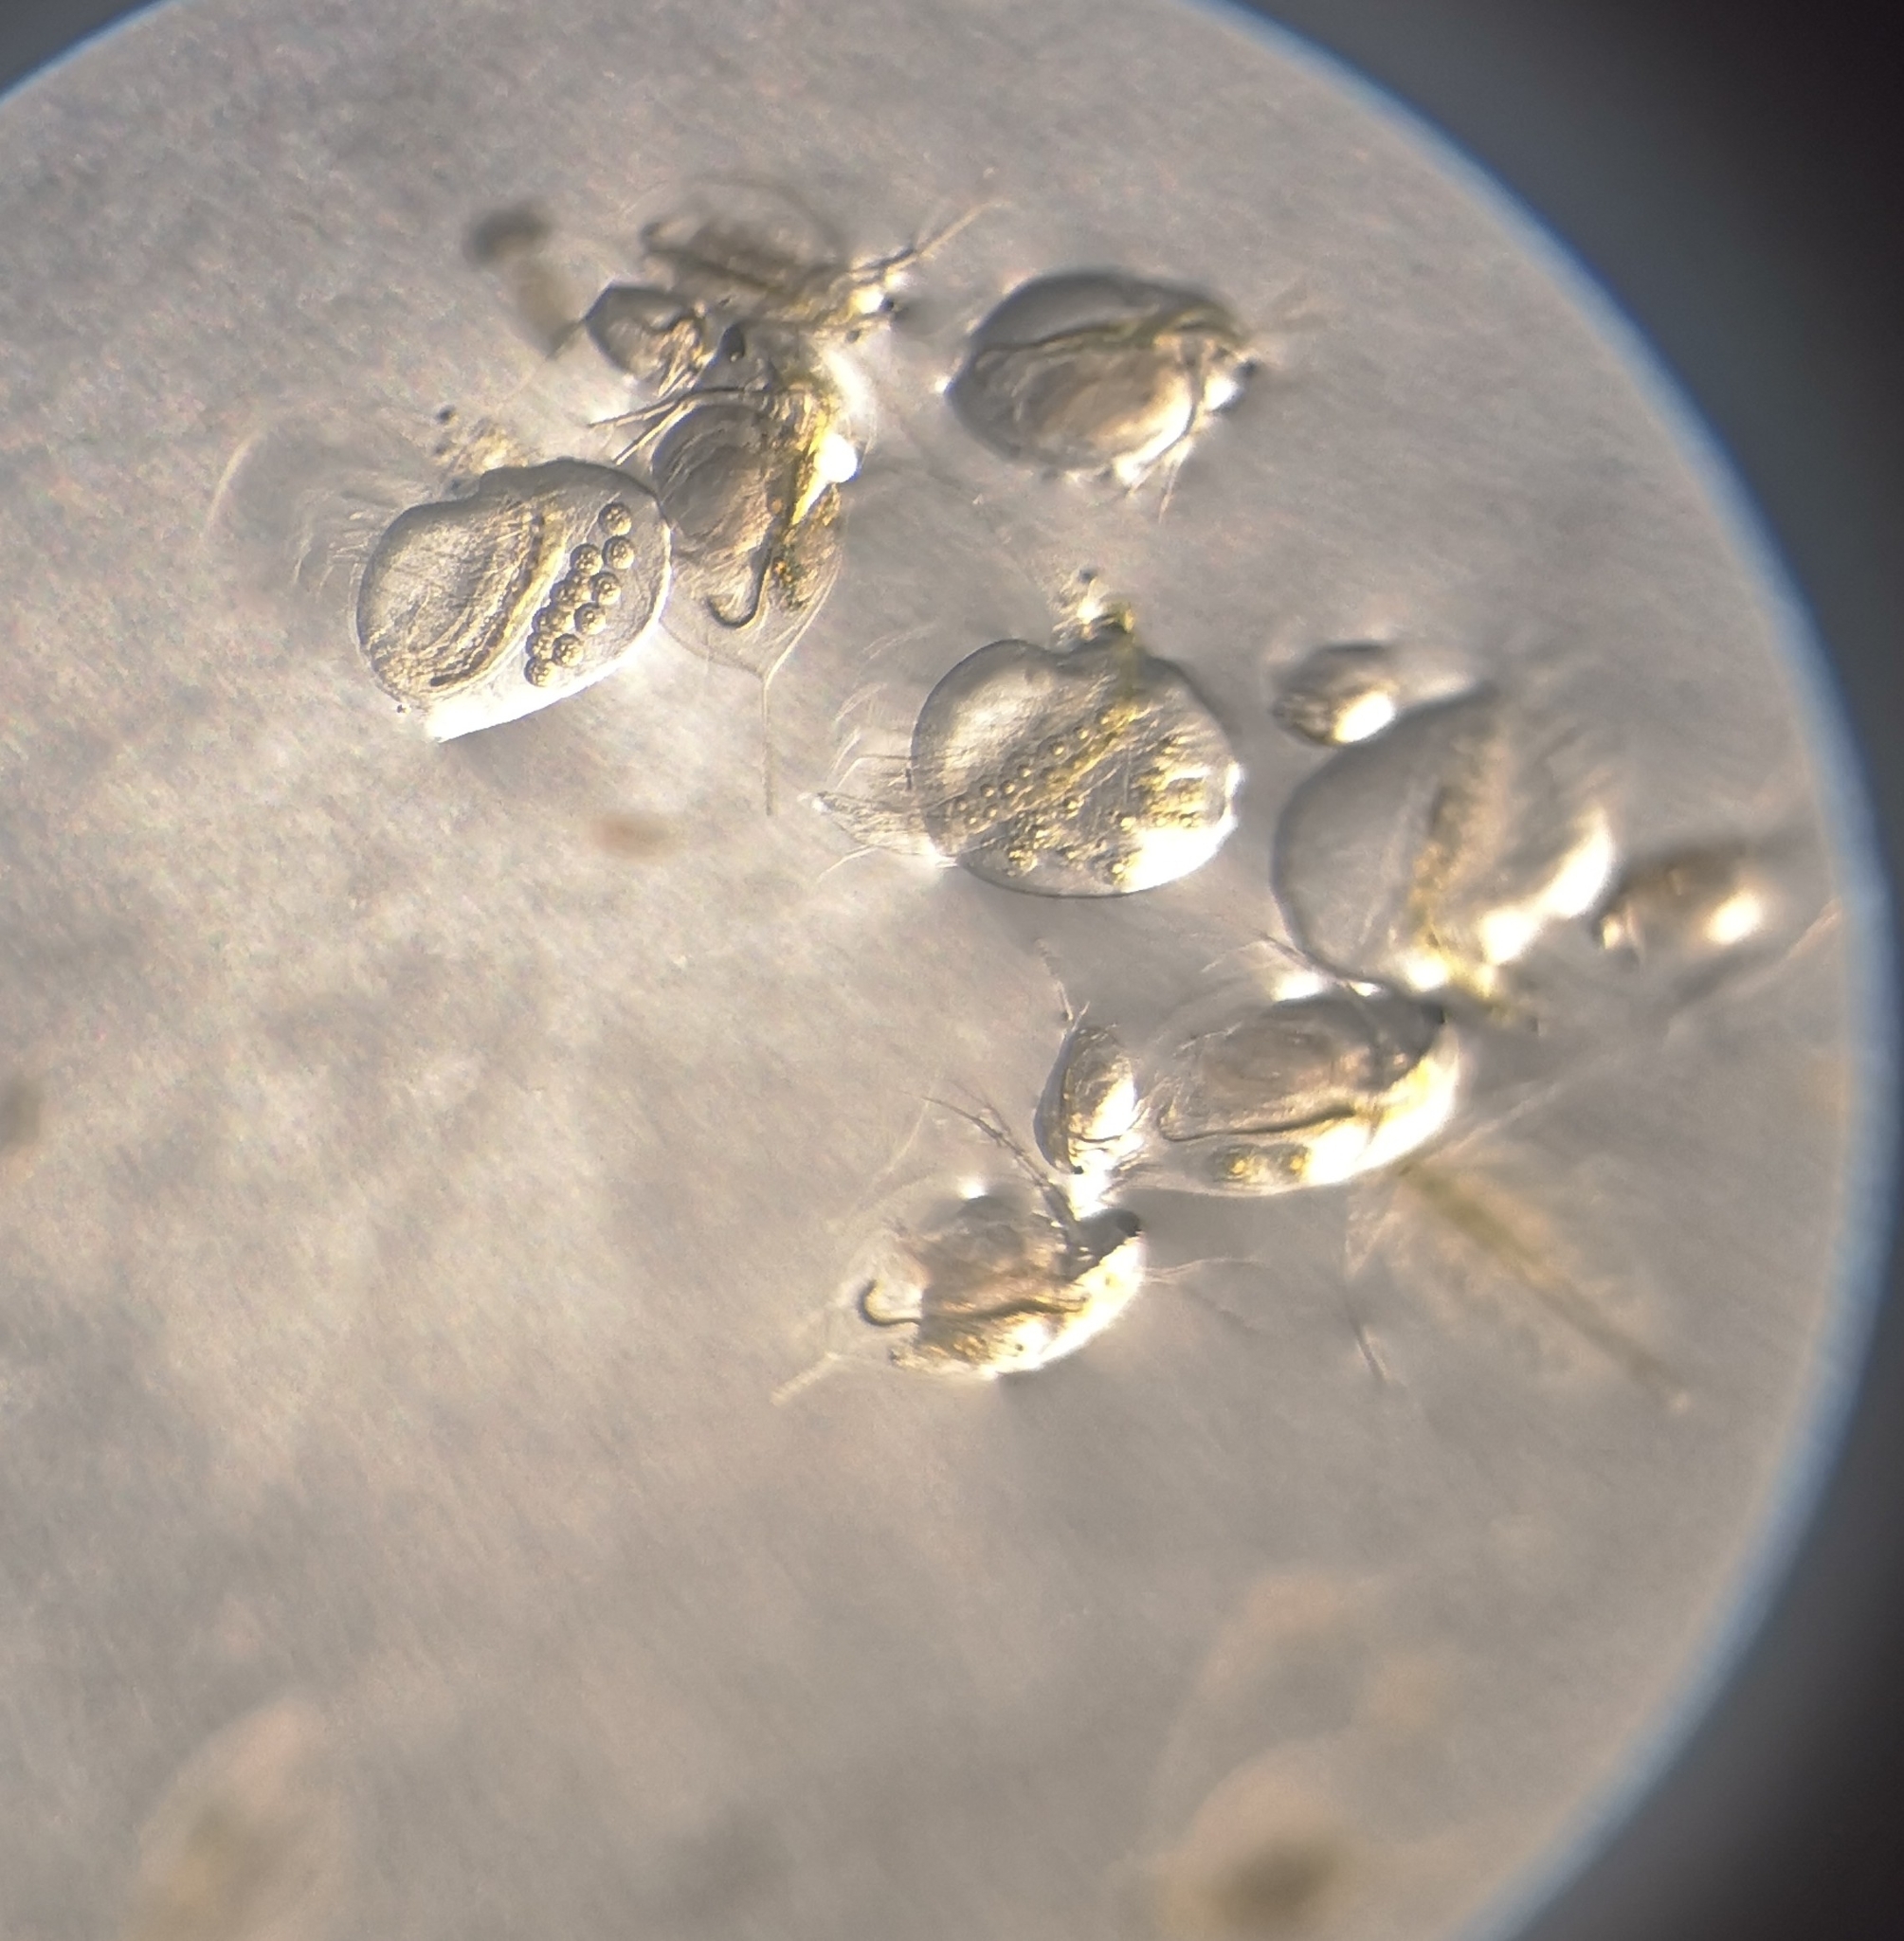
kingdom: Animalia
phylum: Arthropoda
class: Branchiopoda
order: Diplostraca
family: Holopediidae
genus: Holopedium
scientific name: Holopedium gibberum
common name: Jelly waterflea
